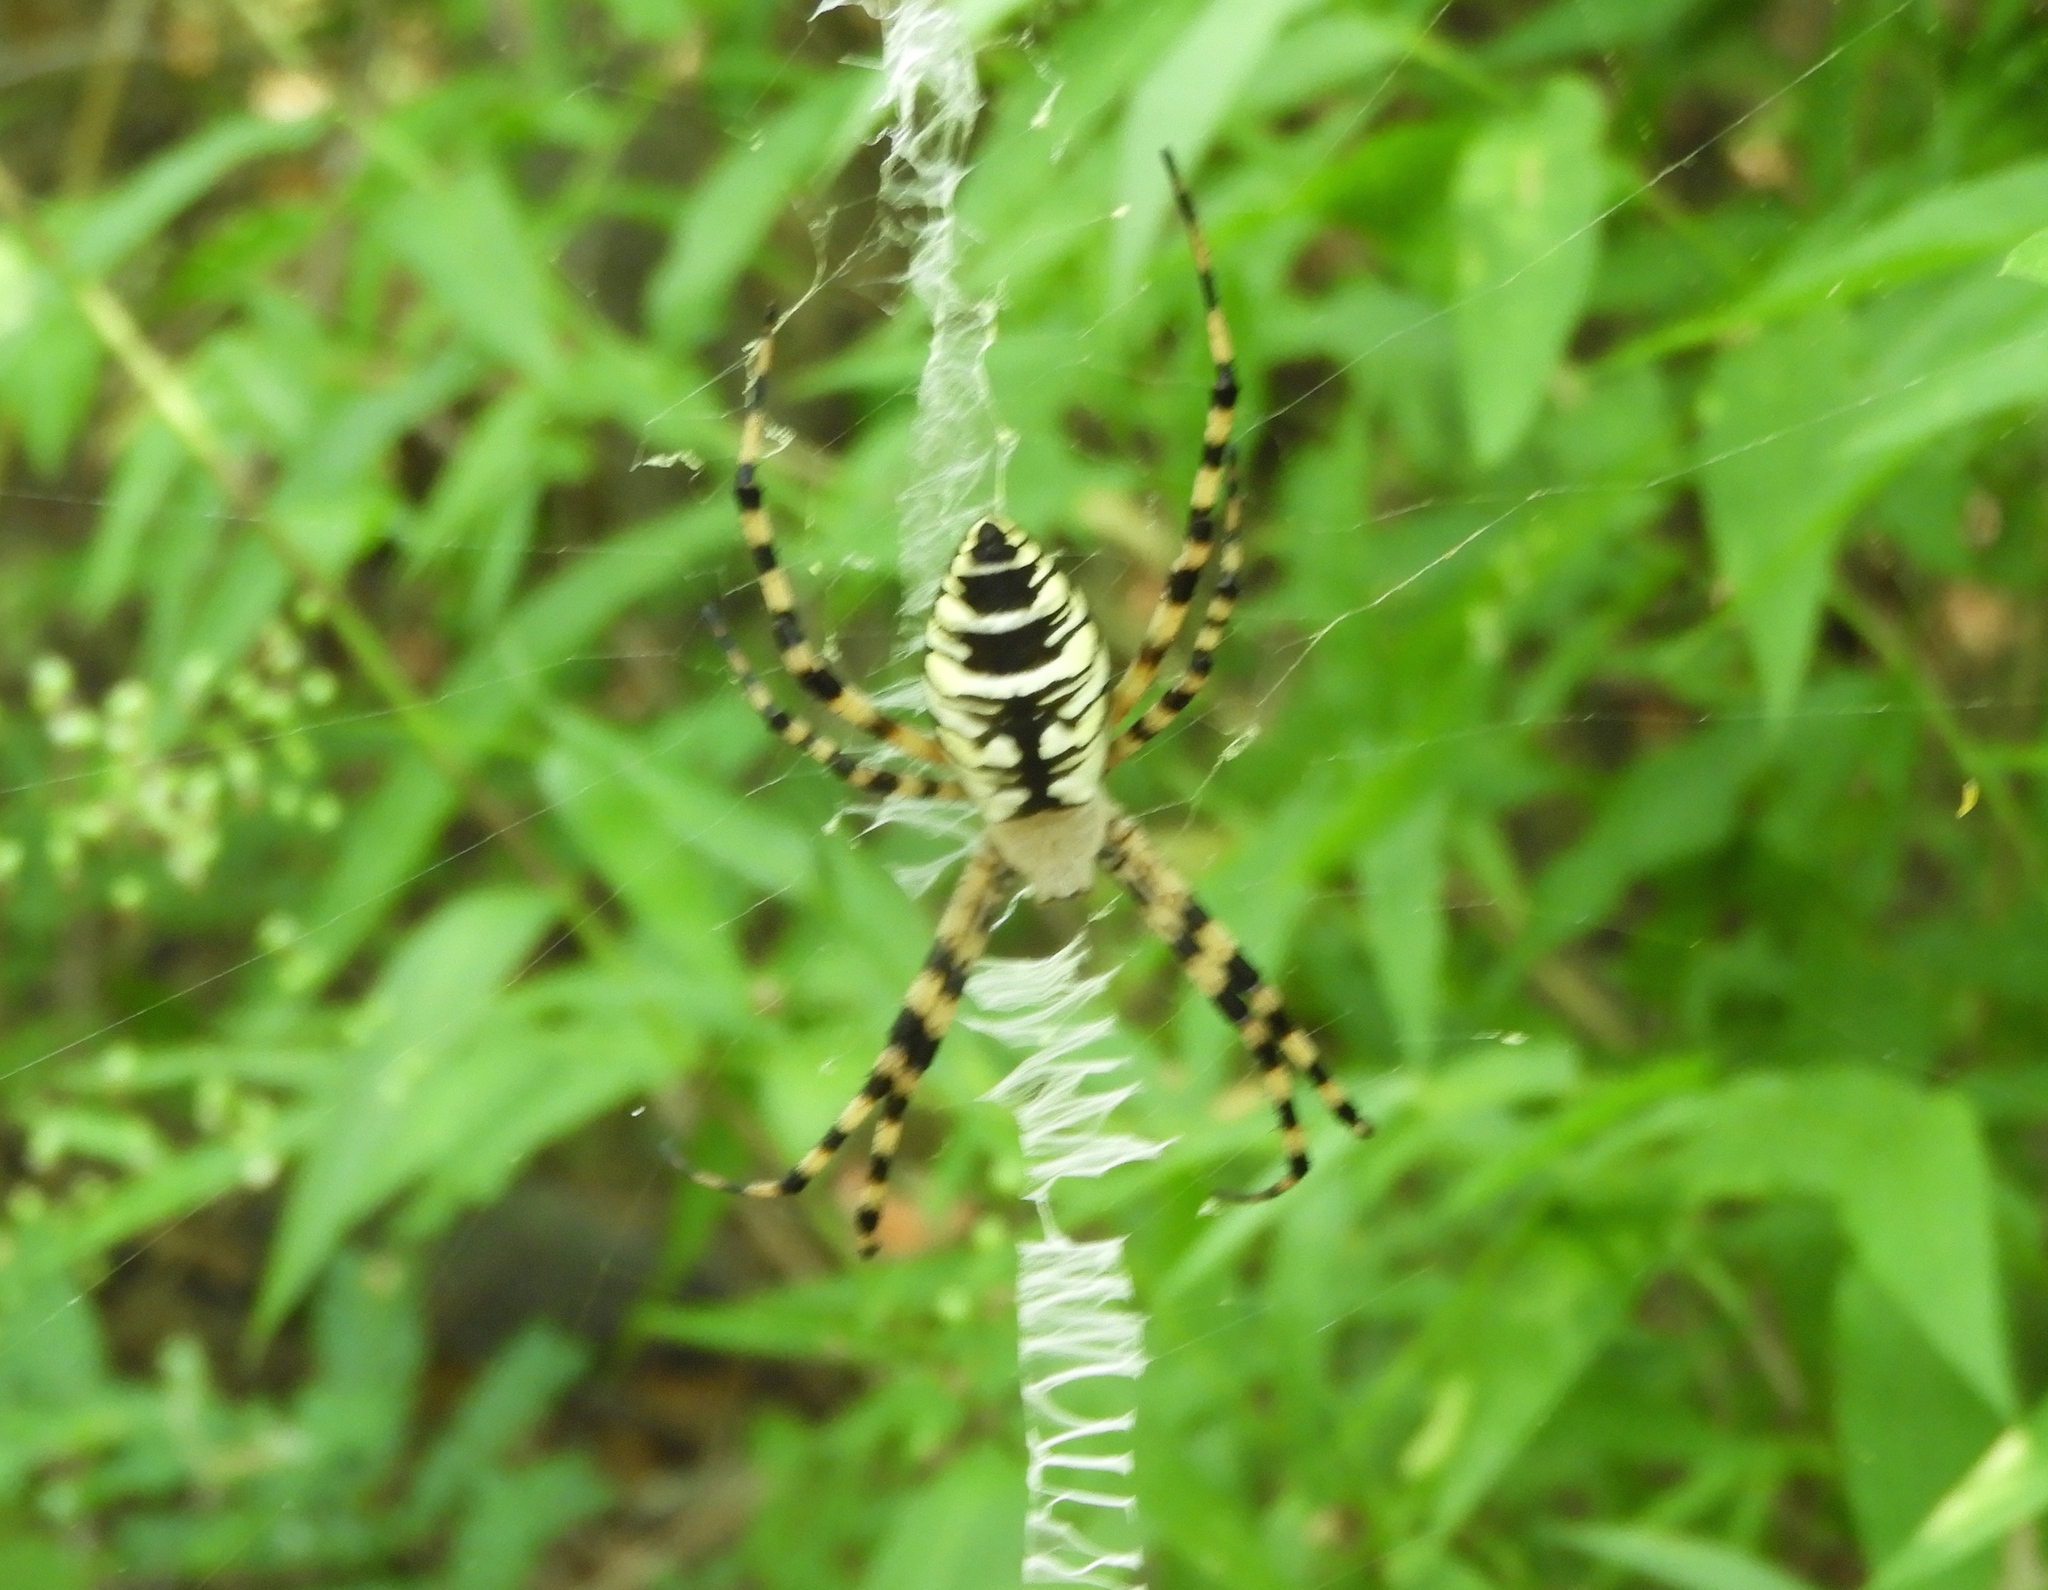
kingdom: Animalia
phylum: Arthropoda
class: Arachnida
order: Araneae
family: Araneidae
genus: Argiope
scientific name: Argiope aurantia
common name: Orb weavers
